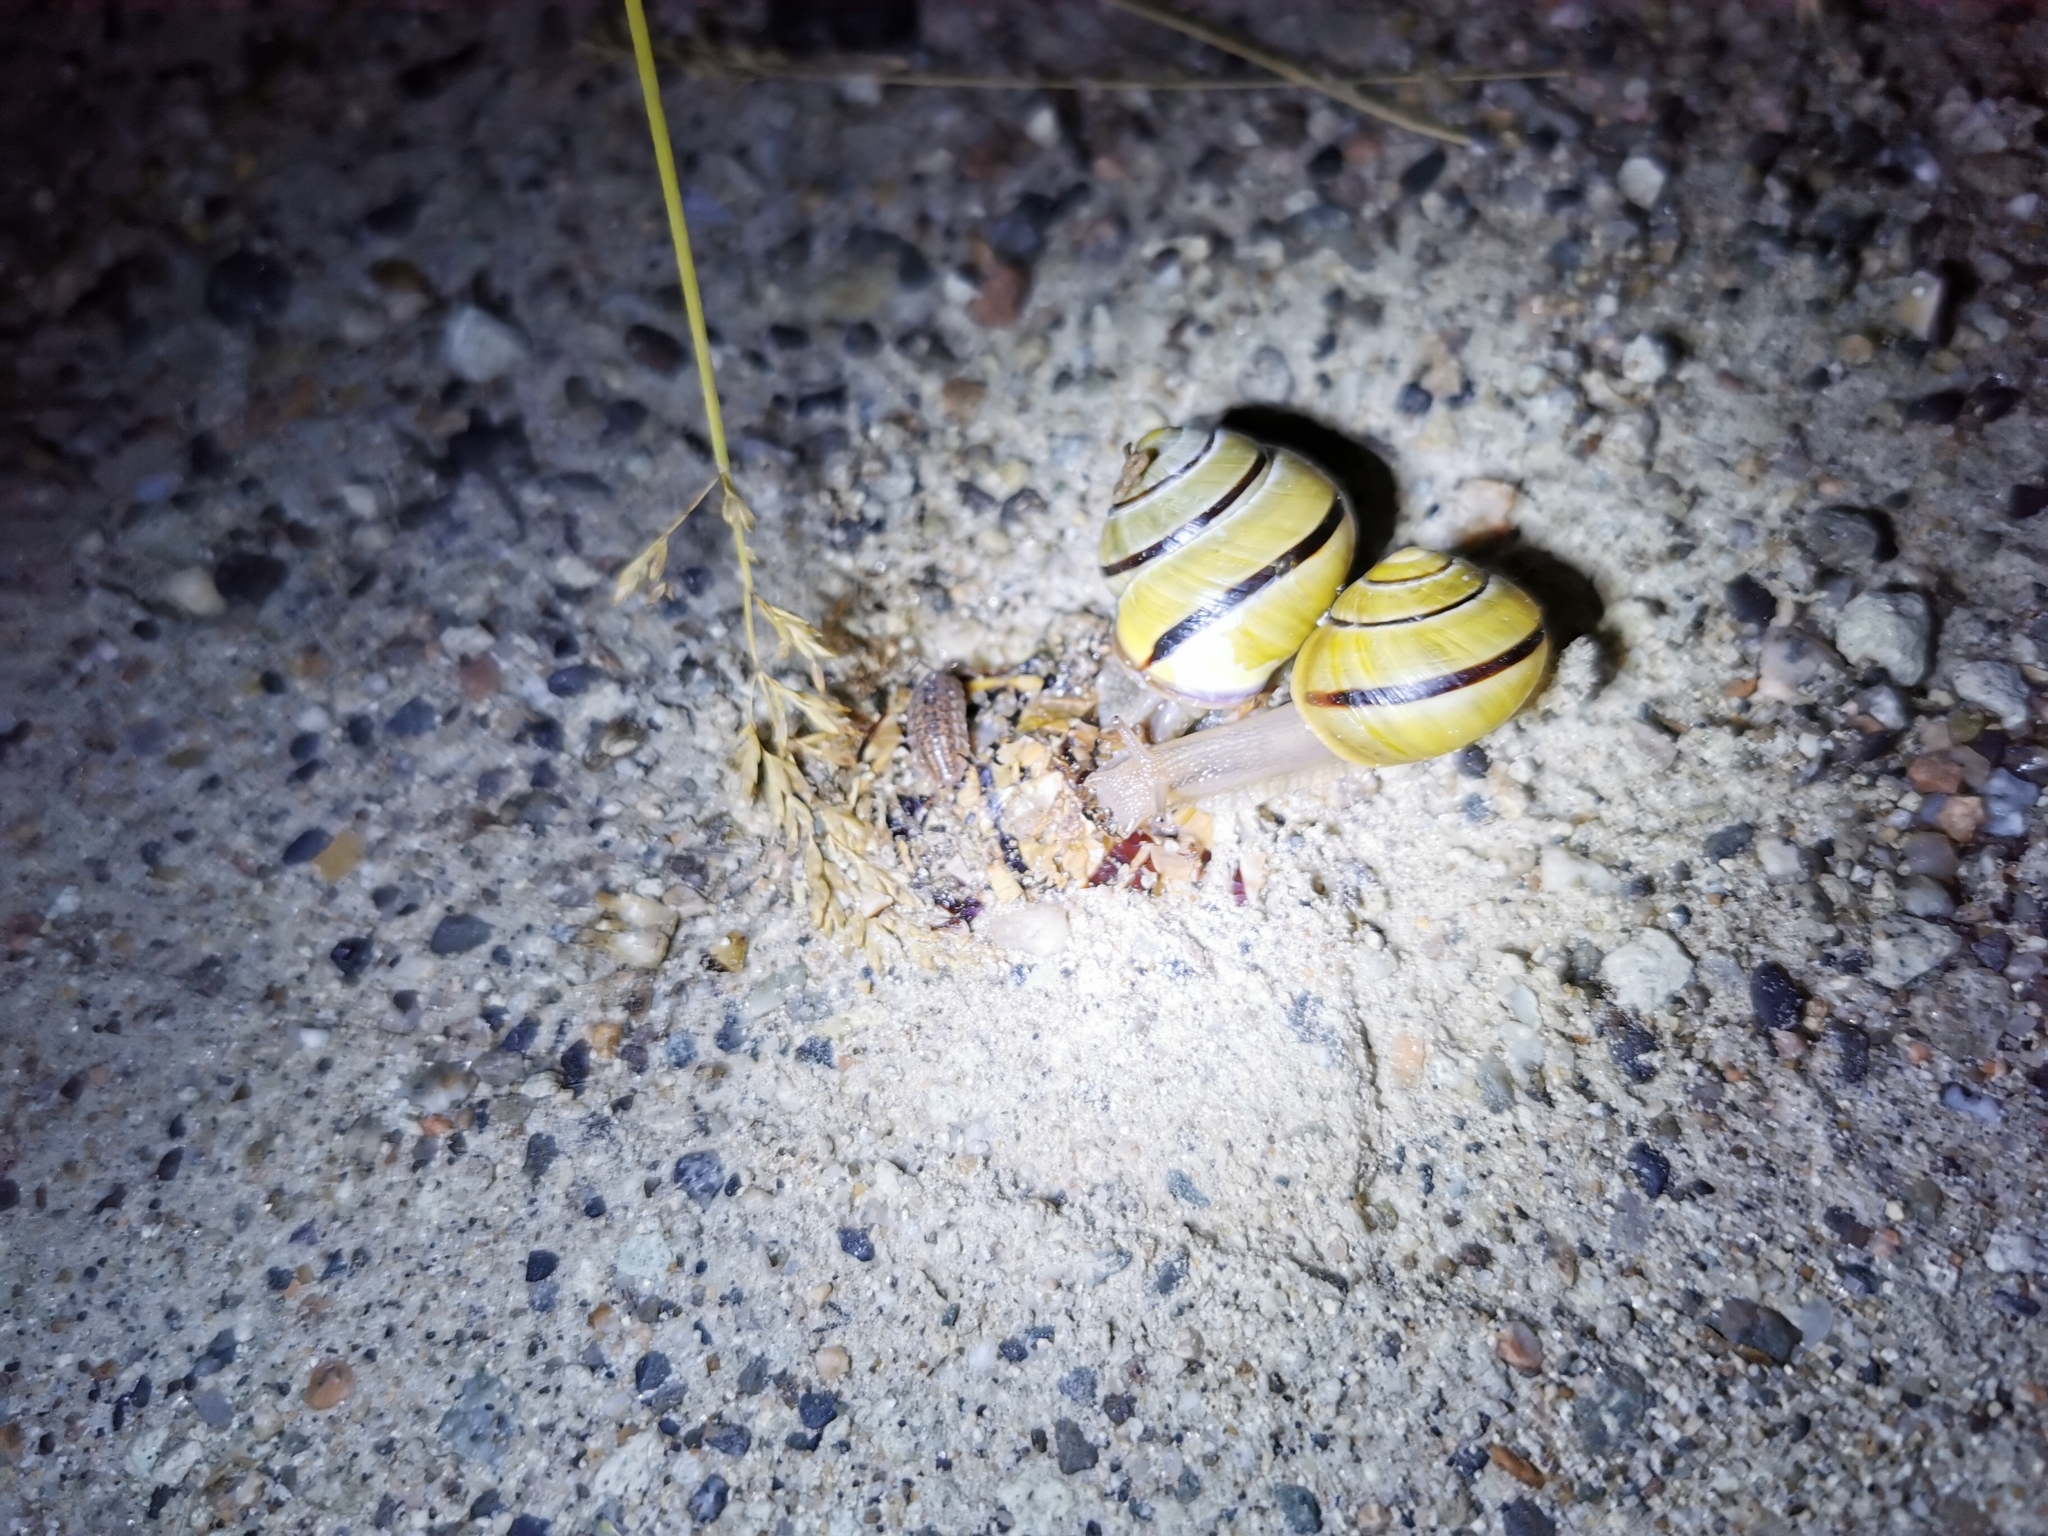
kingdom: Animalia
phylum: Mollusca
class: Gastropoda
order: Stylommatophora
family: Helicidae
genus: Cepaea
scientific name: Cepaea nemoralis
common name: Grovesnail
